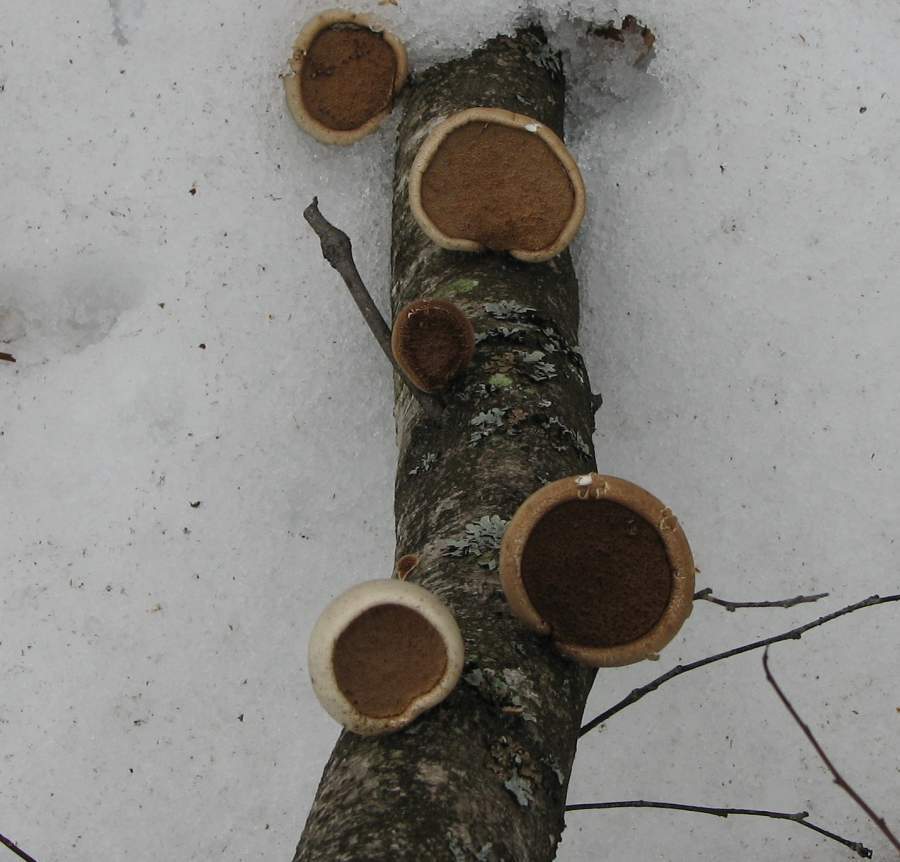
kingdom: Fungi
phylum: Basidiomycota
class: Agaricomycetes
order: Polyporales
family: Fomitopsidaceae
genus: Fomitopsis
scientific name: Fomitopsis betulina
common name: Birch polypore
